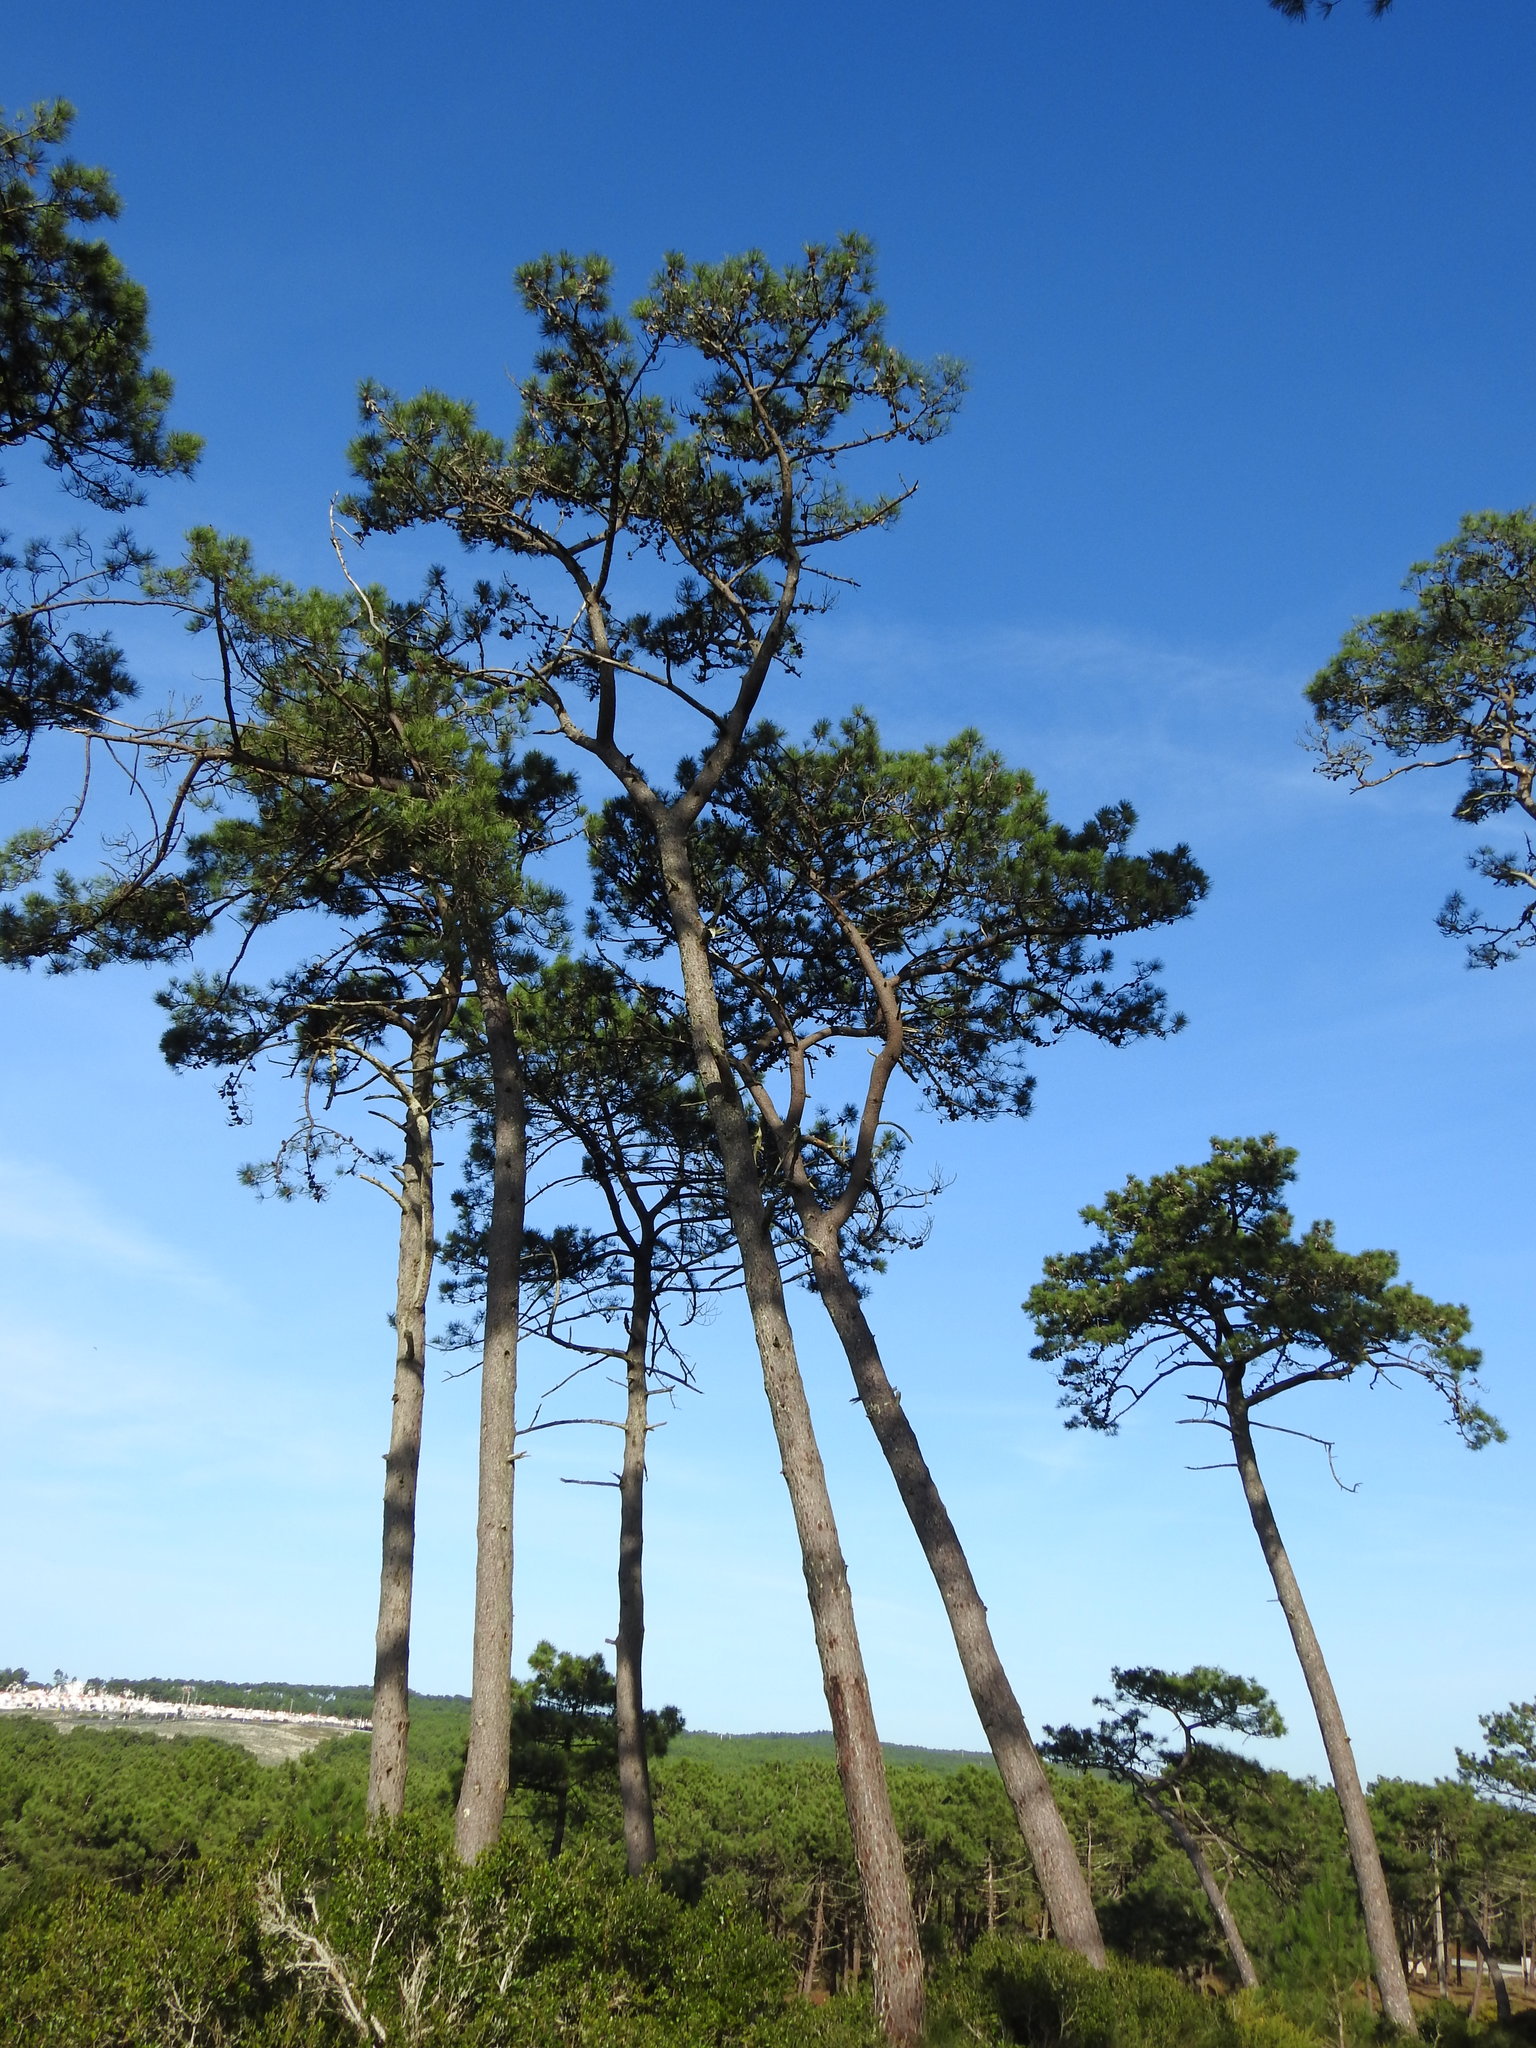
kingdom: Plantae
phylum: Tracheophyta
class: Pinopsida
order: Pinales
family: Pinaceae
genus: Pinus
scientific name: Pinus pinaster
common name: Maritime pine
